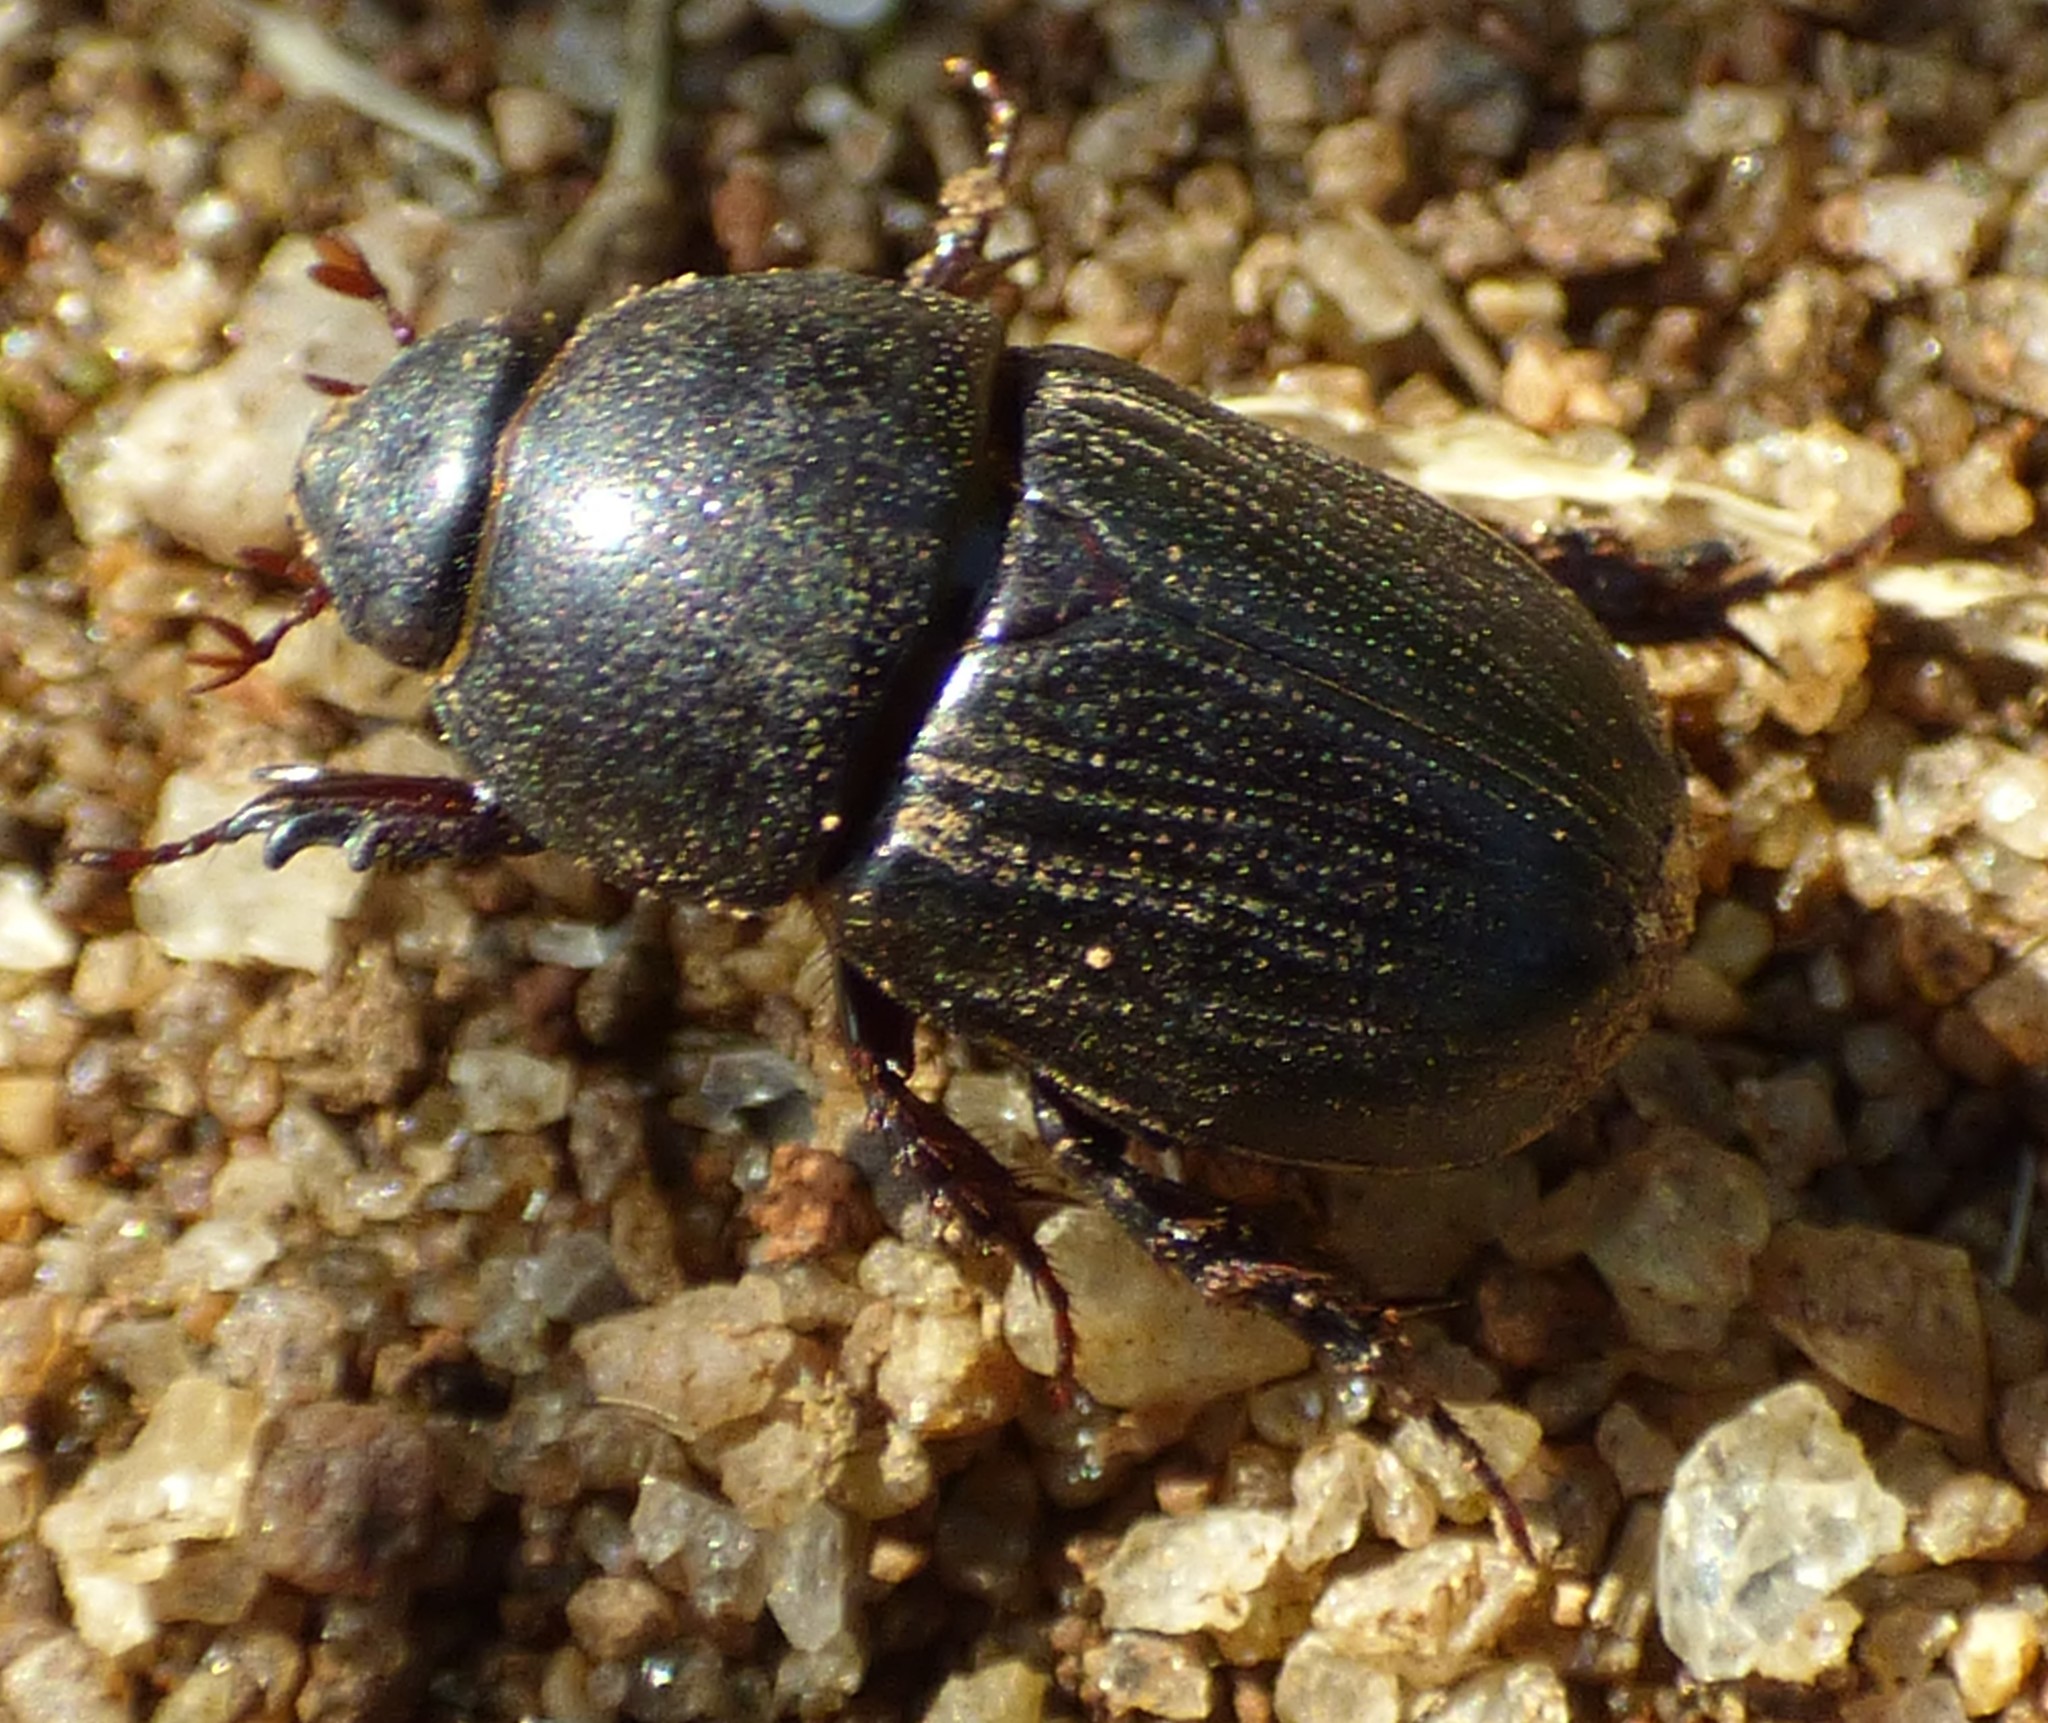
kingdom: Animalia
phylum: Arthropoda
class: Insecta
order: Coleoptera
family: Scarabaeidae
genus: Euetheola
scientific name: Euetheola humilis
